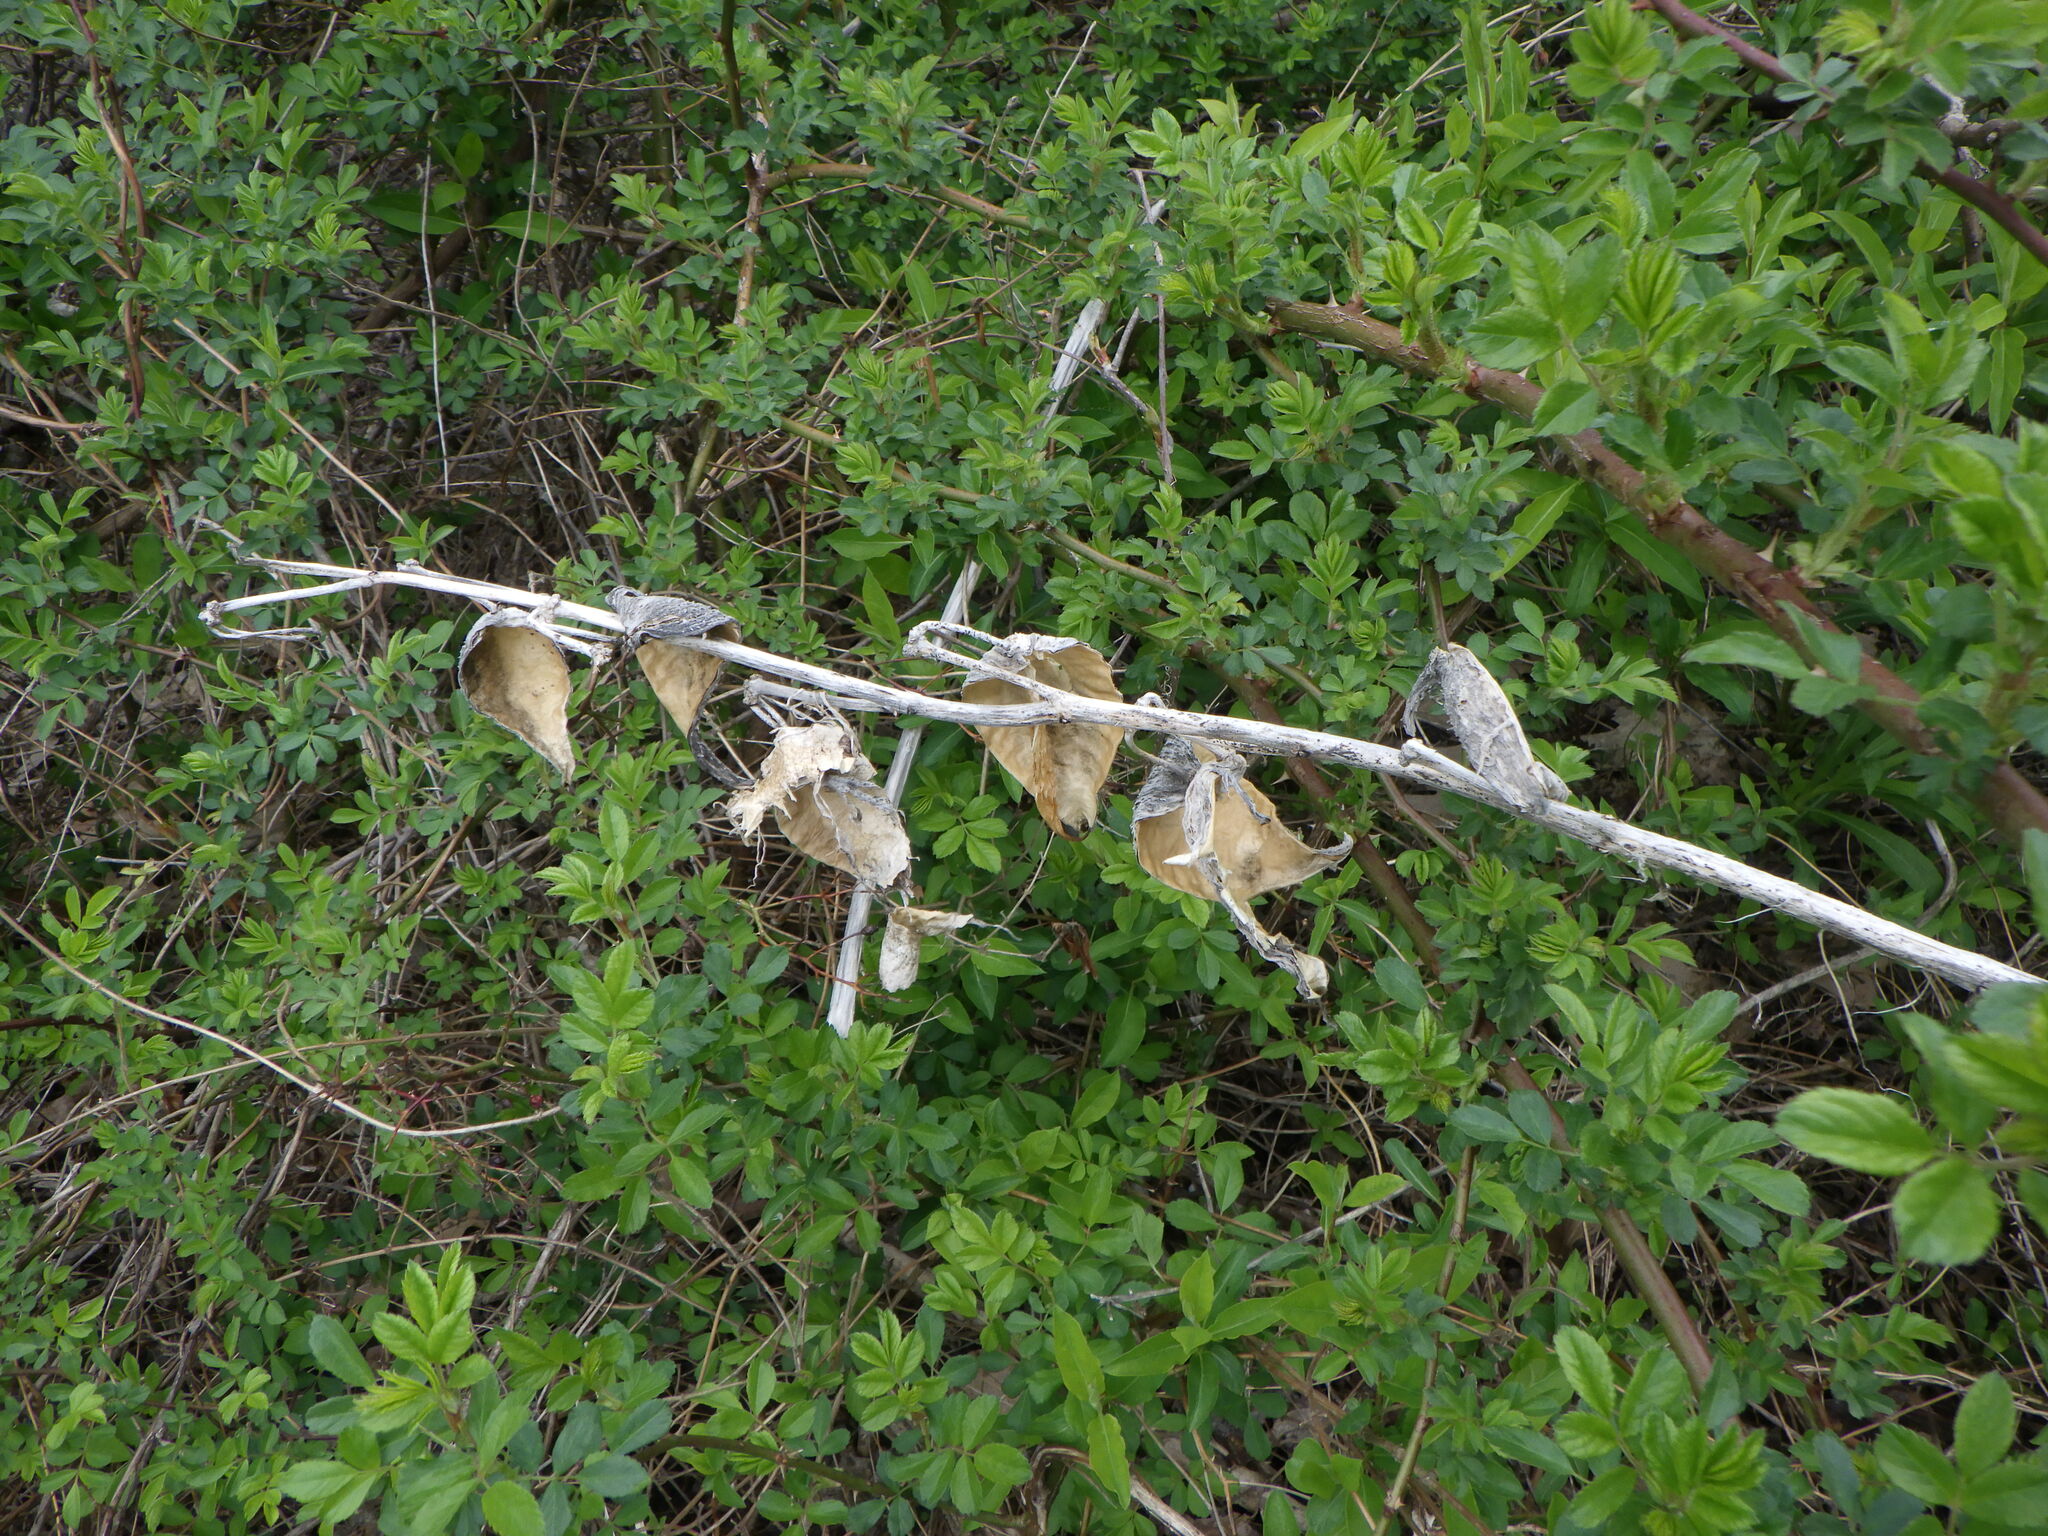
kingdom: Plantae
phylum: Tracheophyta
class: Magnoliopsida
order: Gentianales
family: Apocynaceae
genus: Asclepias
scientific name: Asclepias syriaca
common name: Common milkweed
